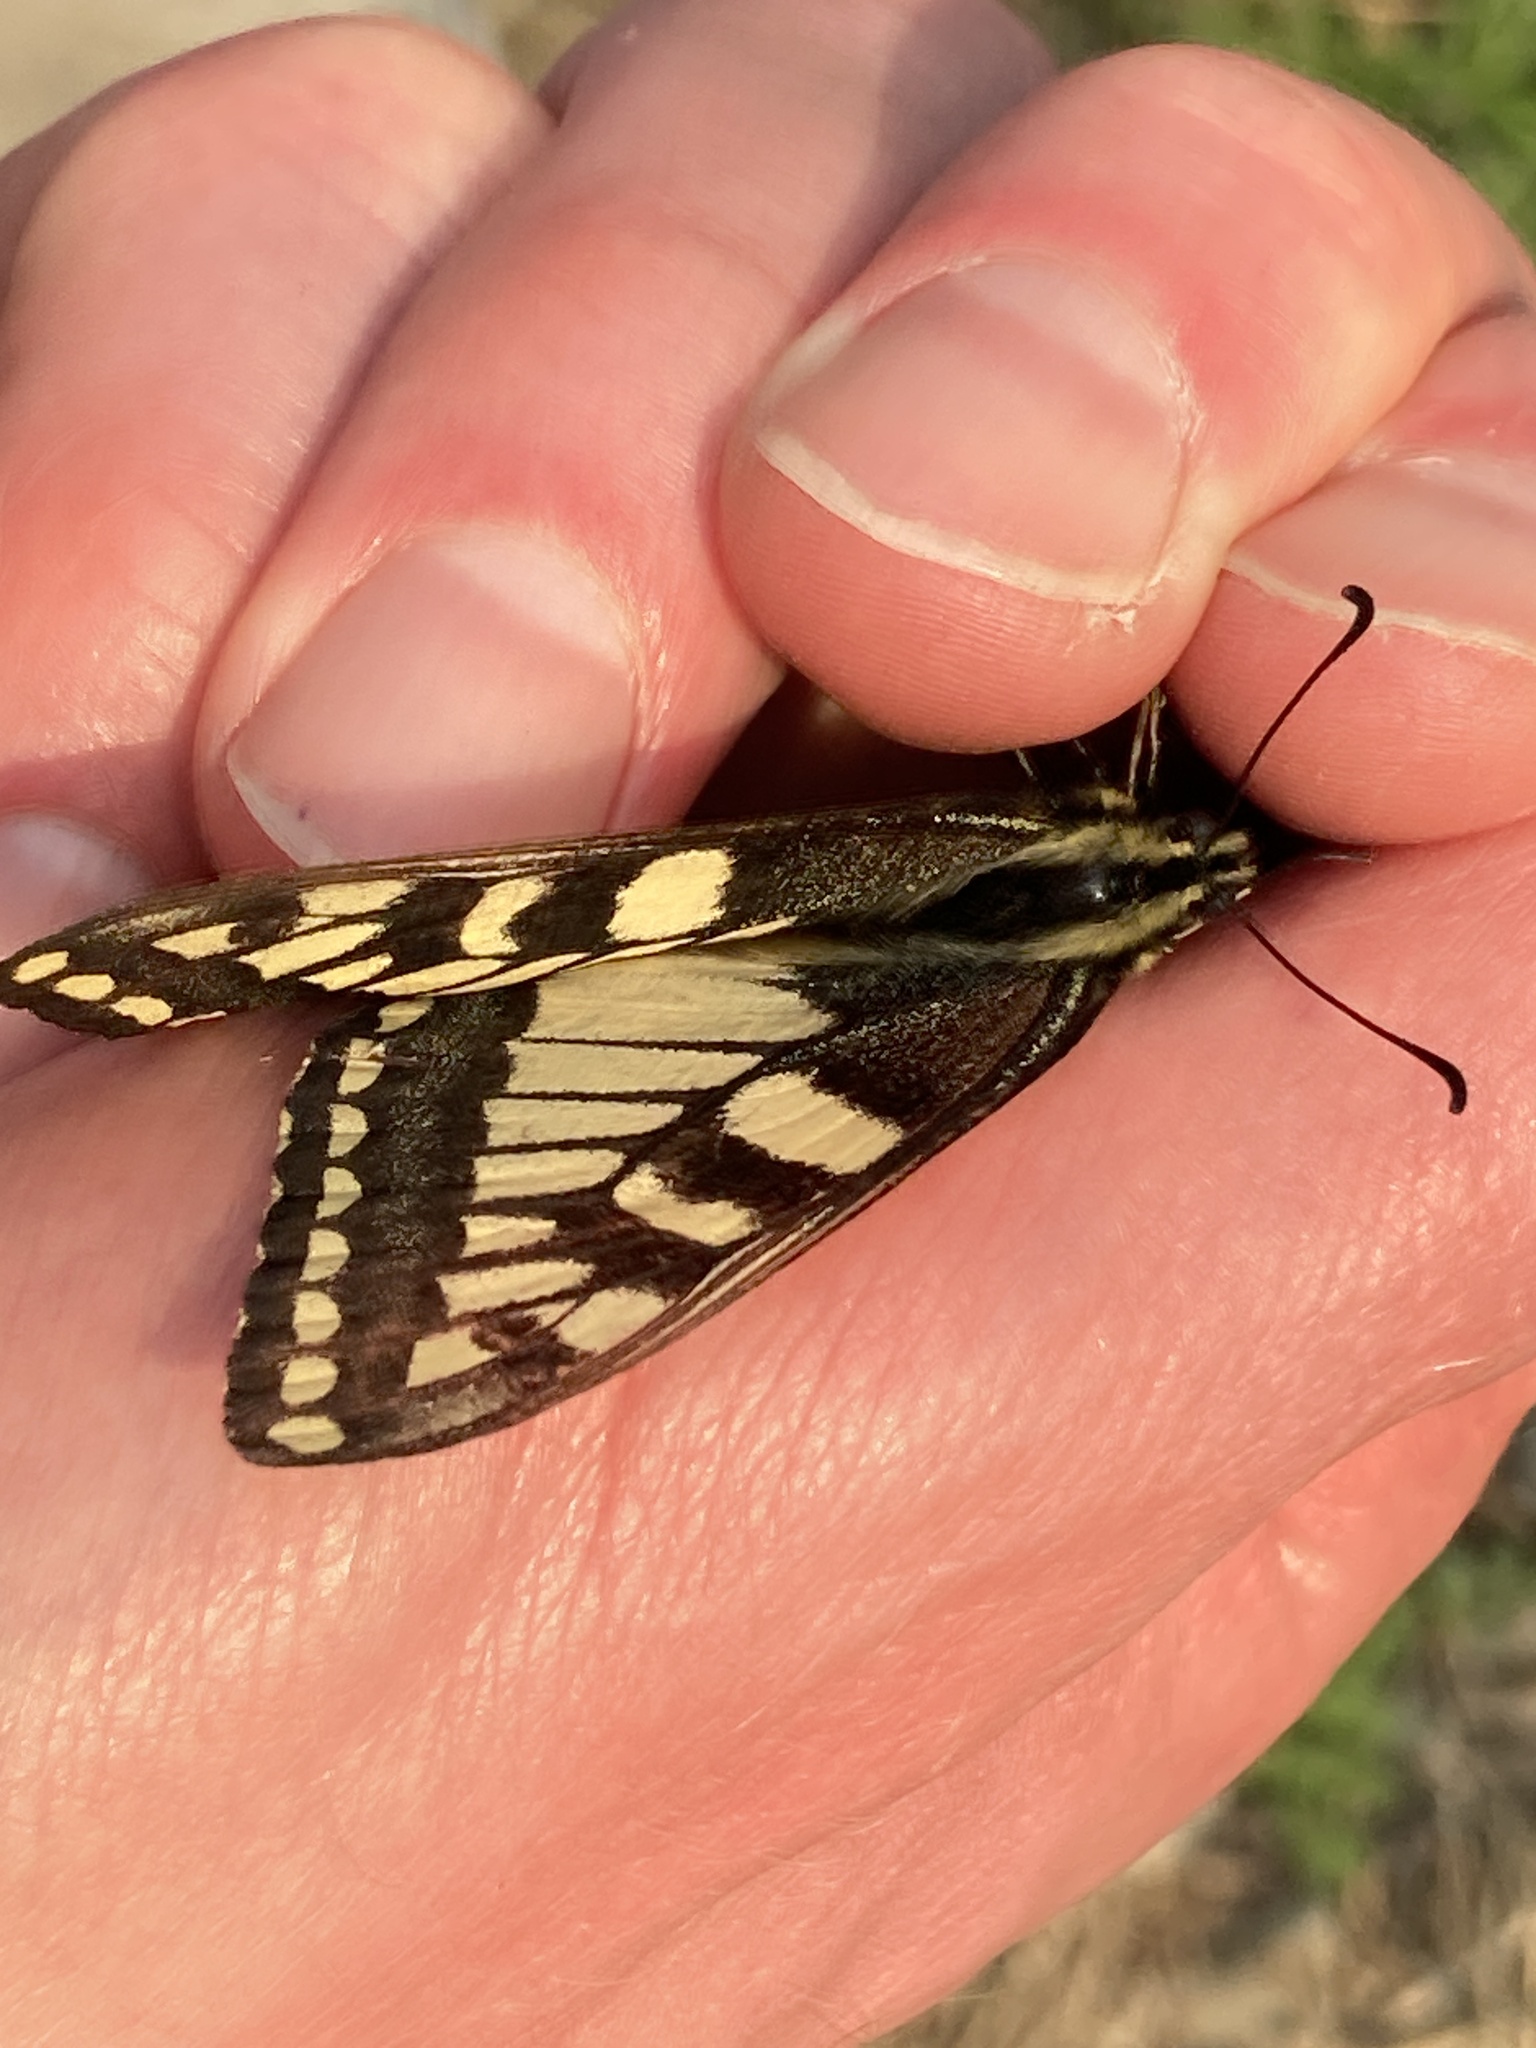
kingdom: Animalia
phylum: Arthropoda
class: Insecta
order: Lepidoptera
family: Papilionidae
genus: Papilio
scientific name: Papilio machaon
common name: Swallowtail
